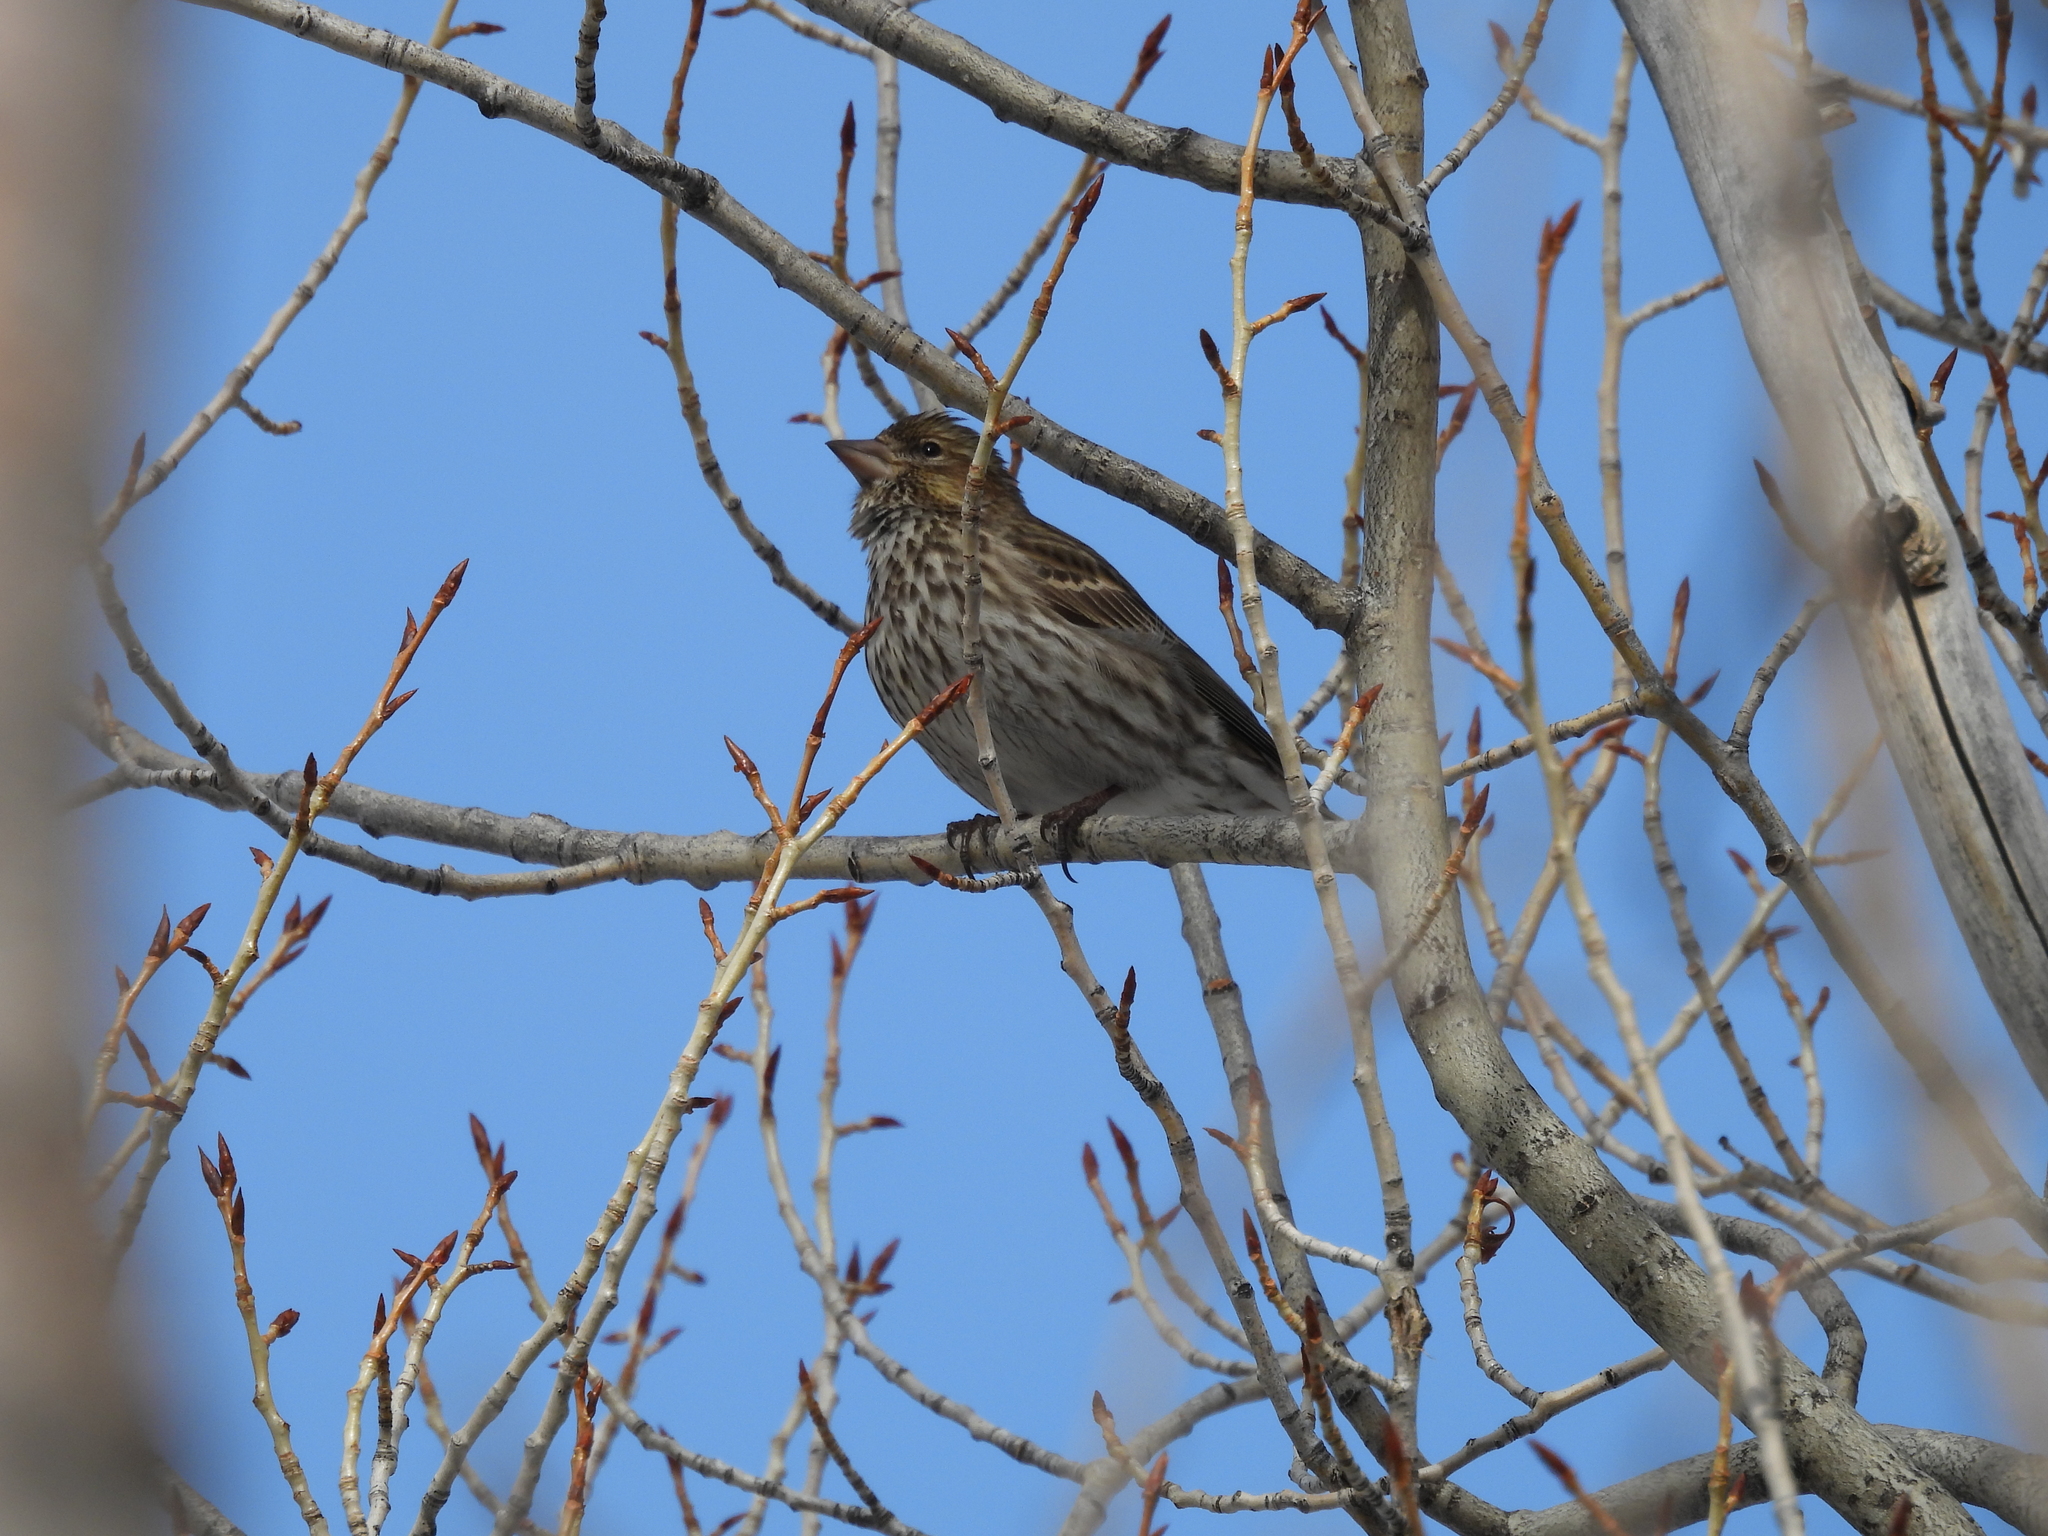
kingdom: Animalia
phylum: Chordata
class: Aves
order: Passeriformes
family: Fringillidae
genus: Haemorhous
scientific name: Haemorhous cassinii
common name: Cassin's finch
